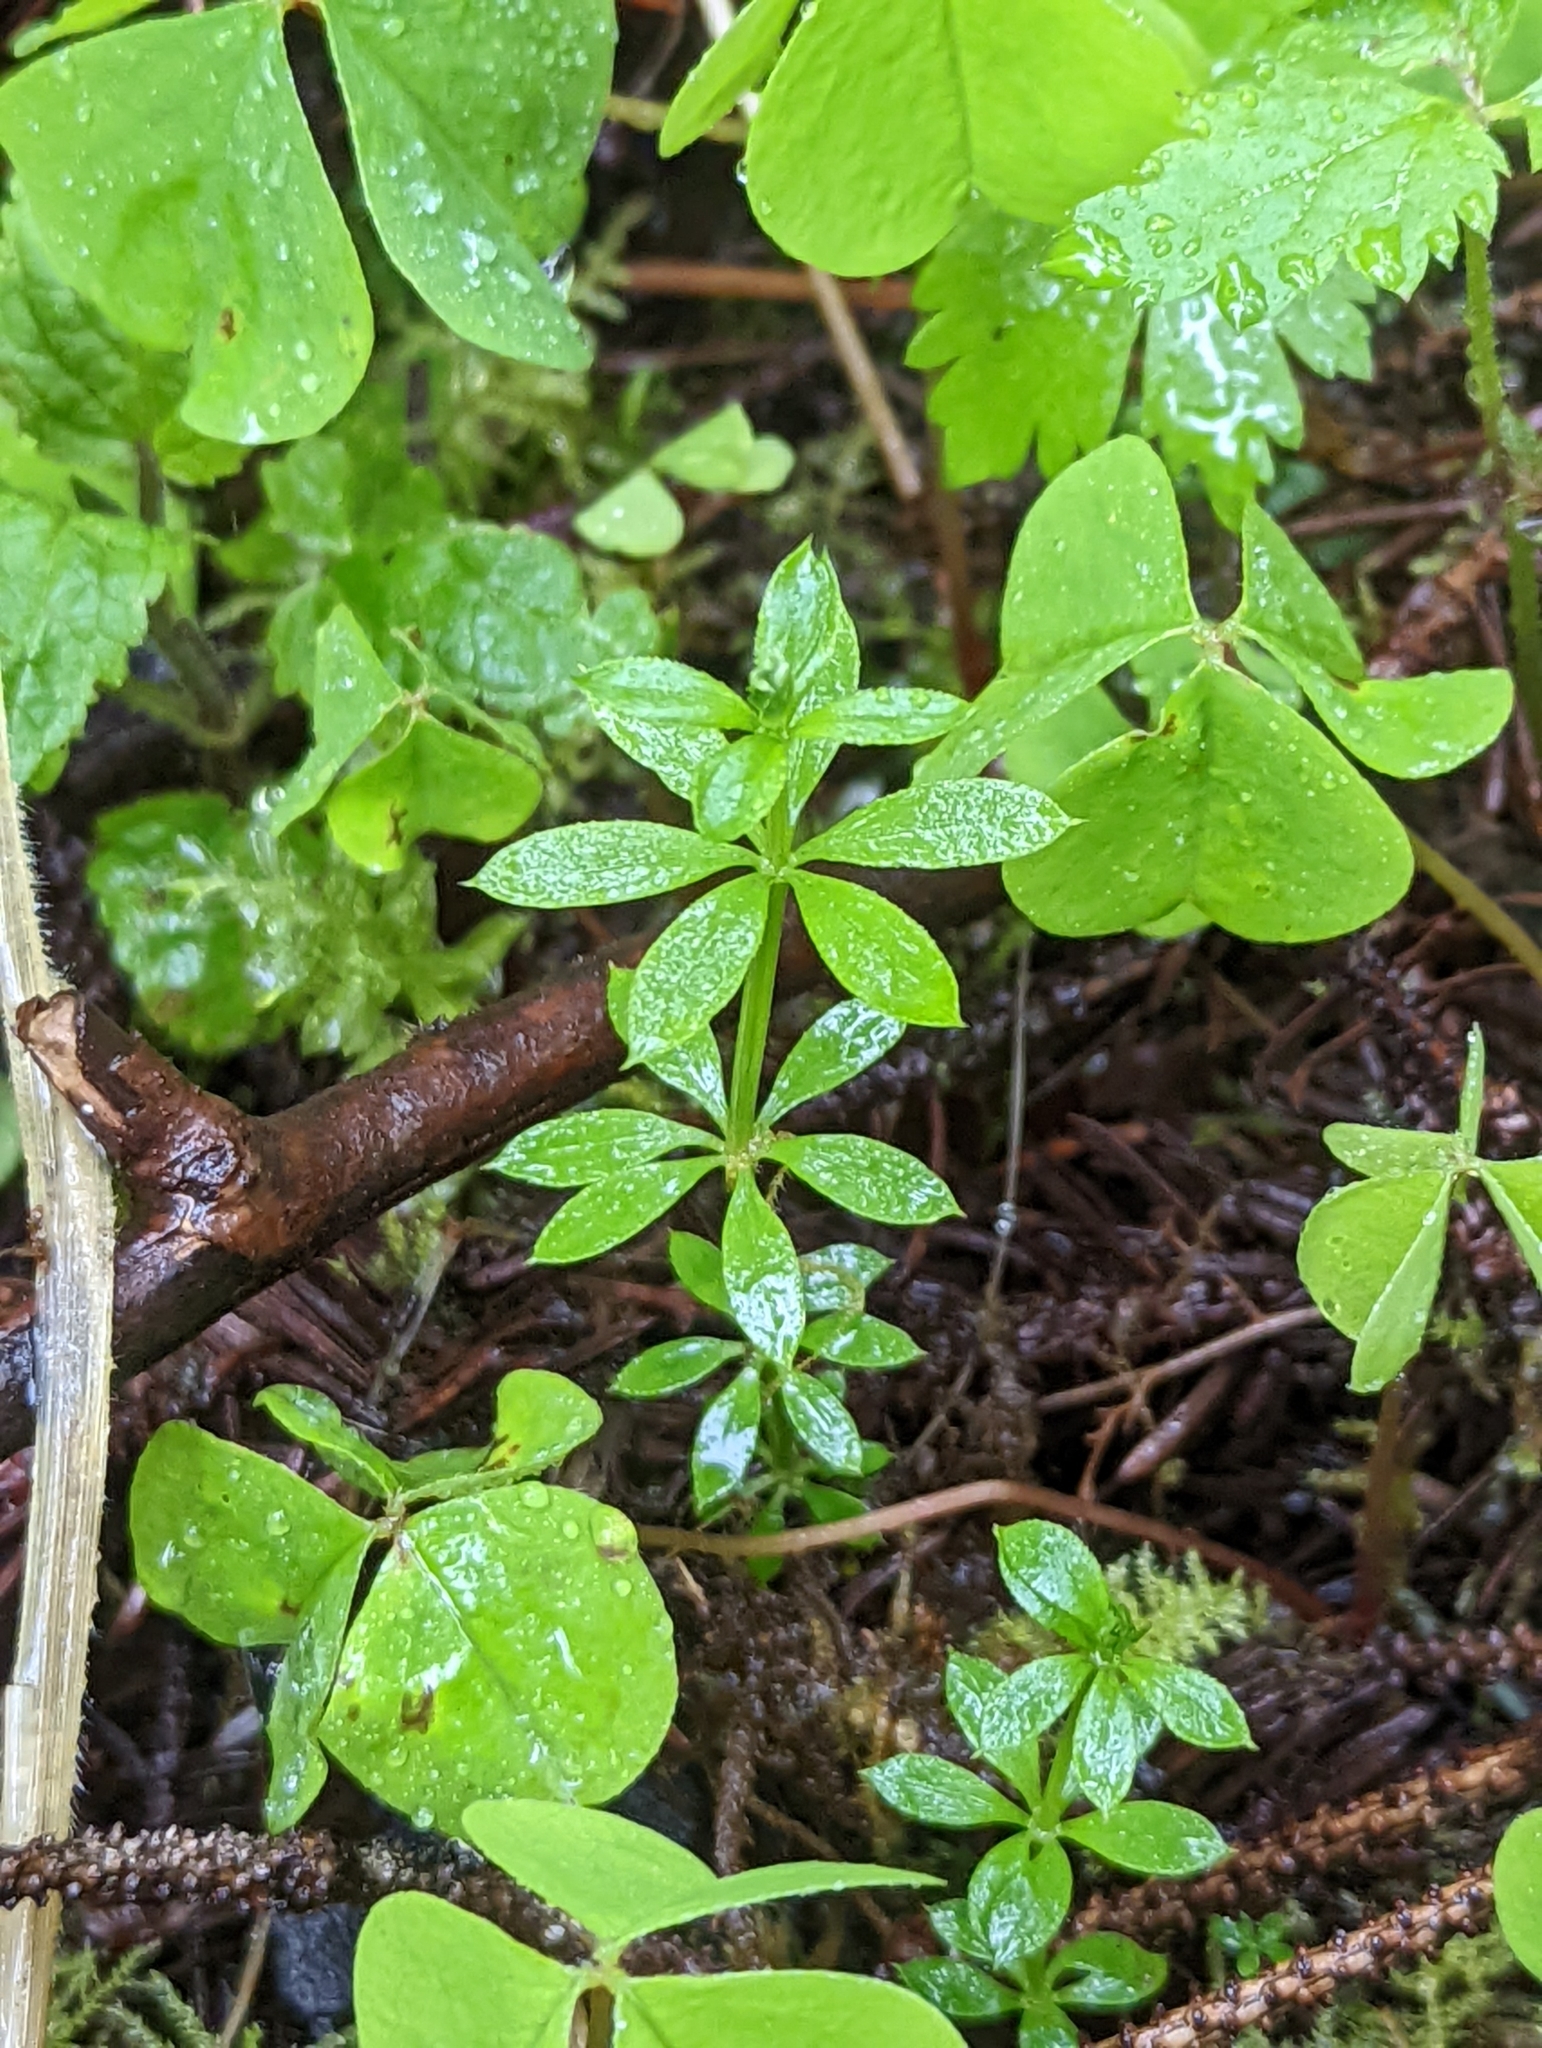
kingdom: Plantae
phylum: Tracheophyta
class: Magnoliopsida
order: Gentianales
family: Rubiaceae
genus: Galium
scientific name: Galium triflorum
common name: Fragrant bedstraw
